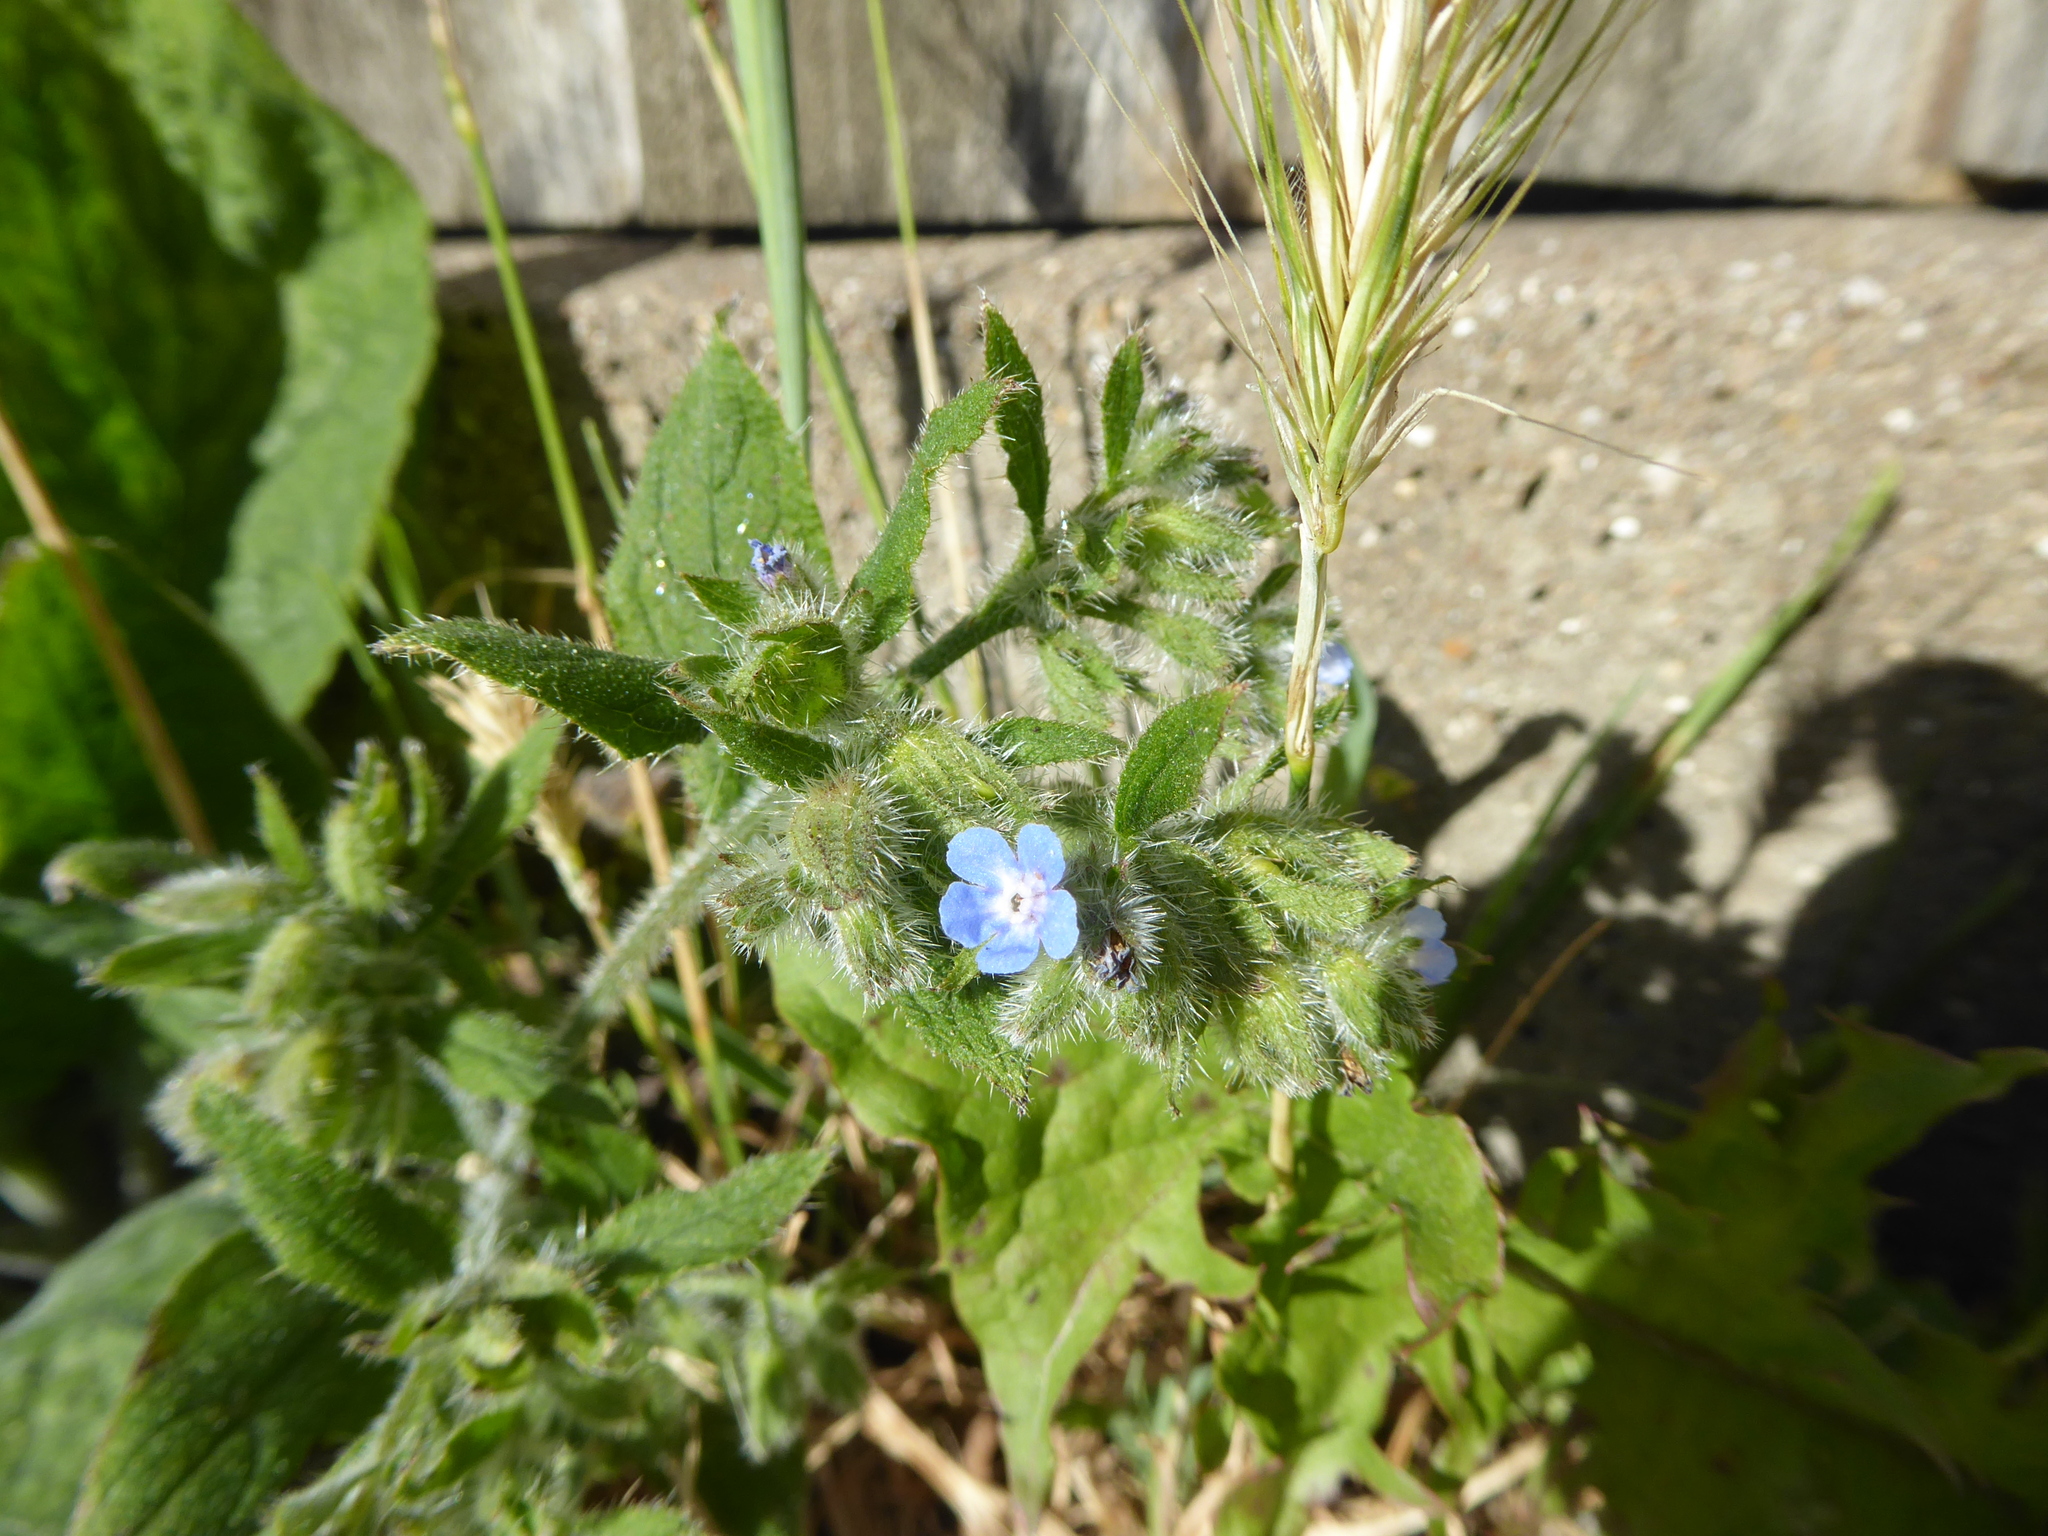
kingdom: Plantae
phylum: Tracheophyta
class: Magnoliopsida
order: Boraginales
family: Boraginaceae
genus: Pentaglottis
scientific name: Pentaglottis sempervirens
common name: Green alkanet
